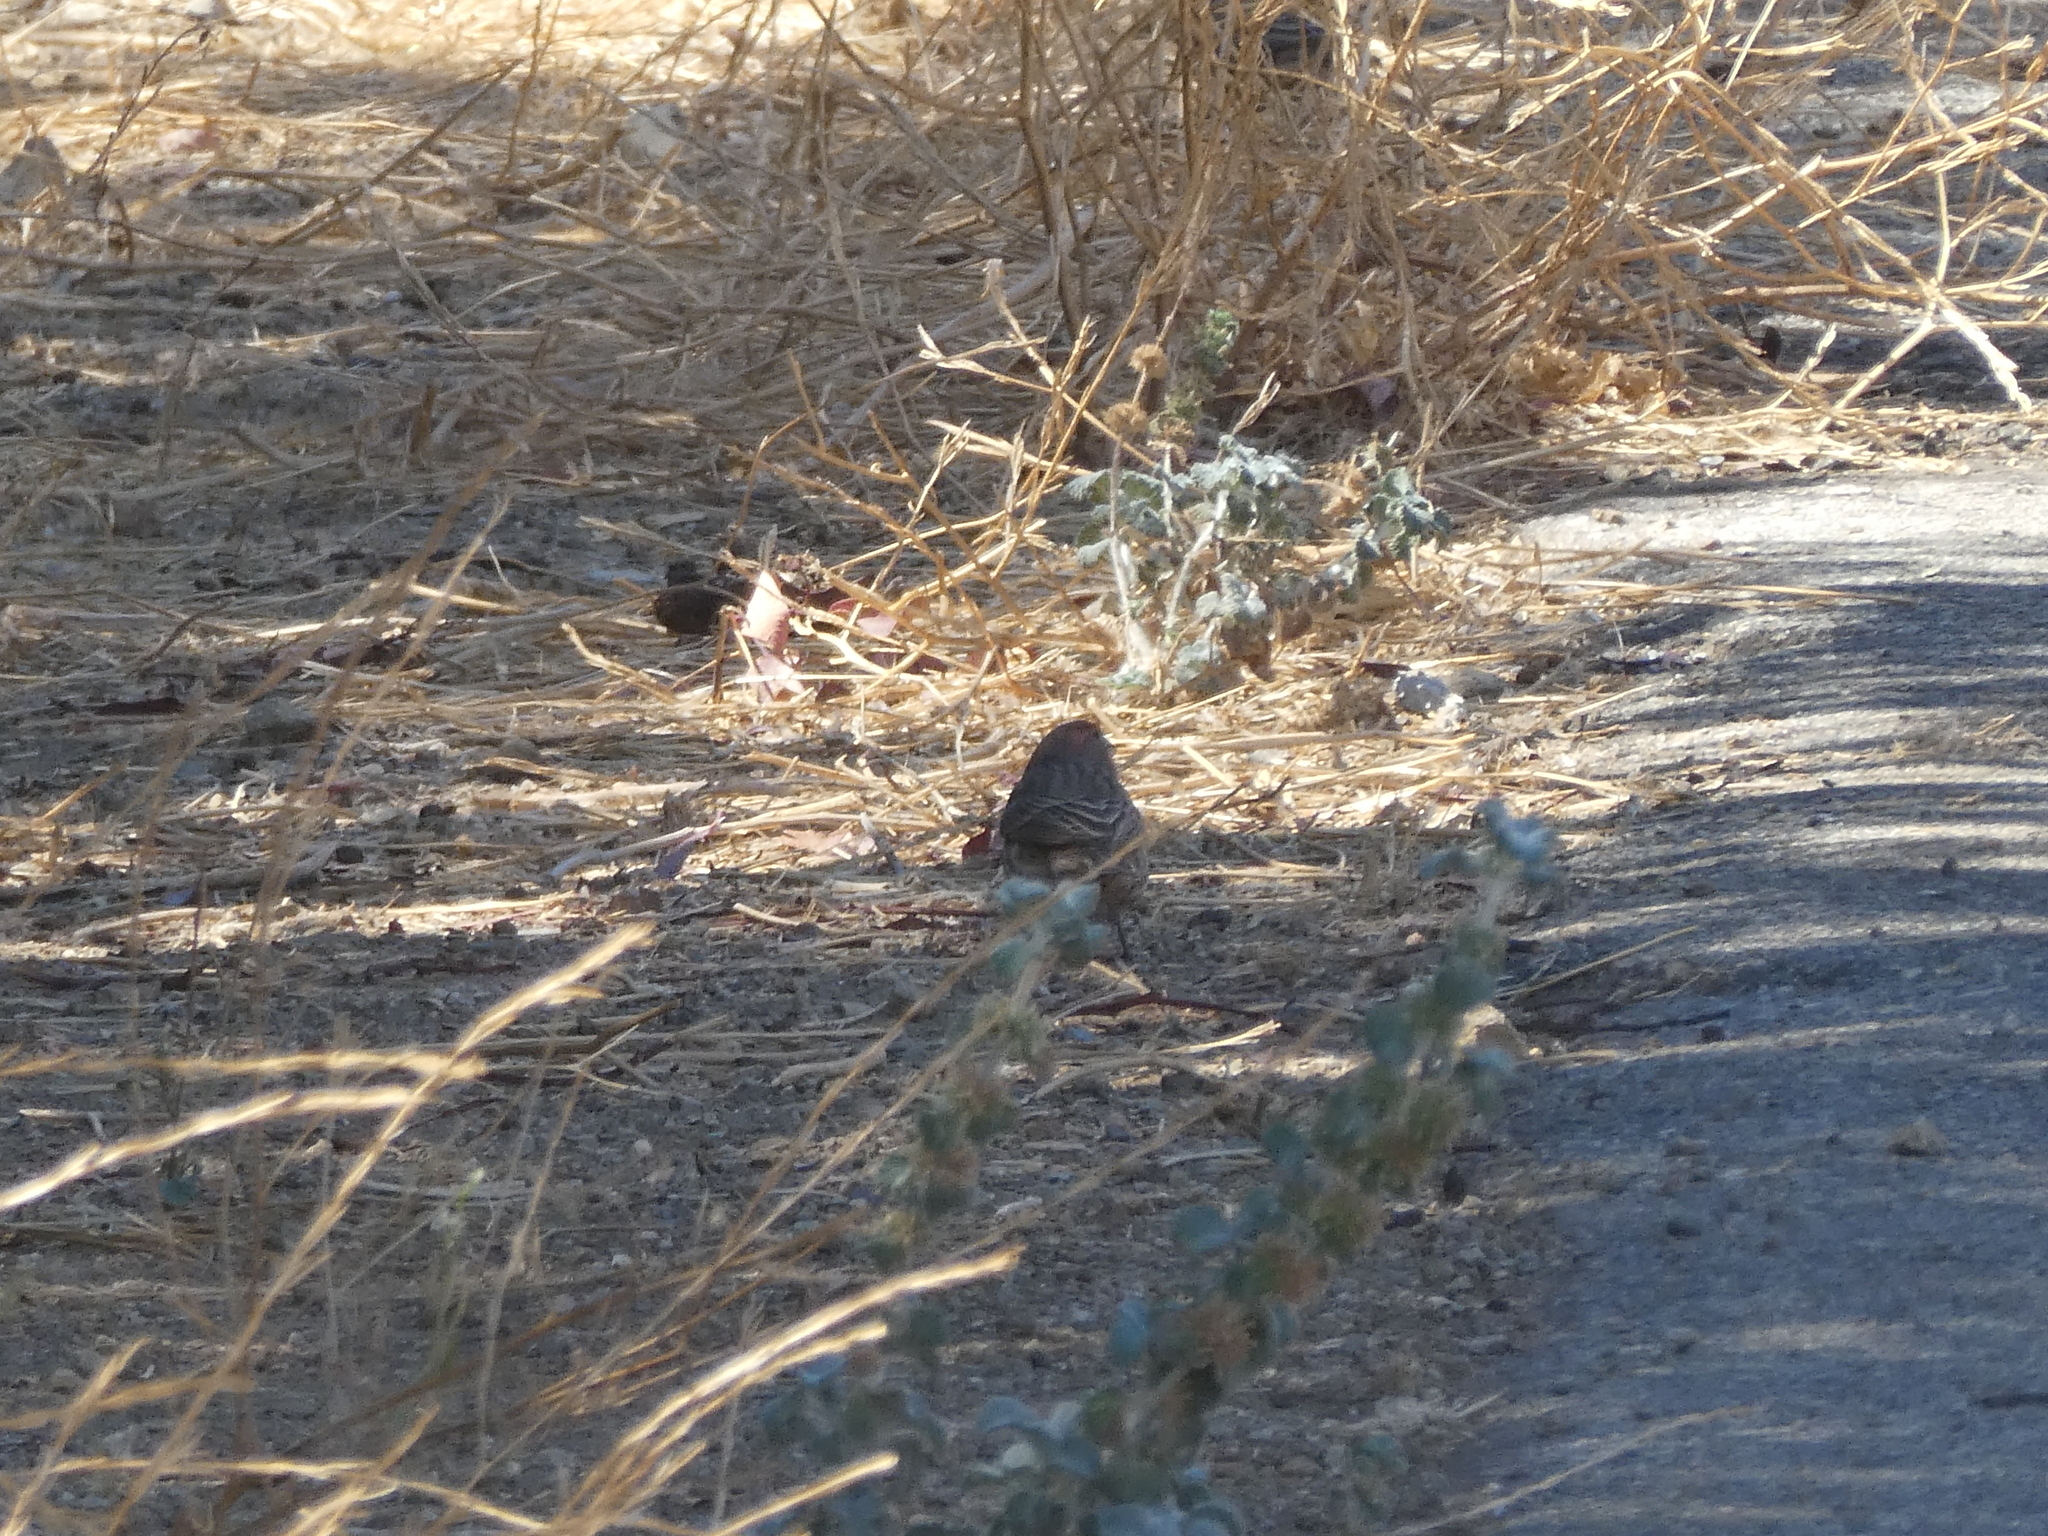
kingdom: Animalia
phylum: Chordata
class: Aves
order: Passeriformes
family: Fringillidae
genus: Haemorhous
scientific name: Haemorhous mexicanus
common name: House finch
